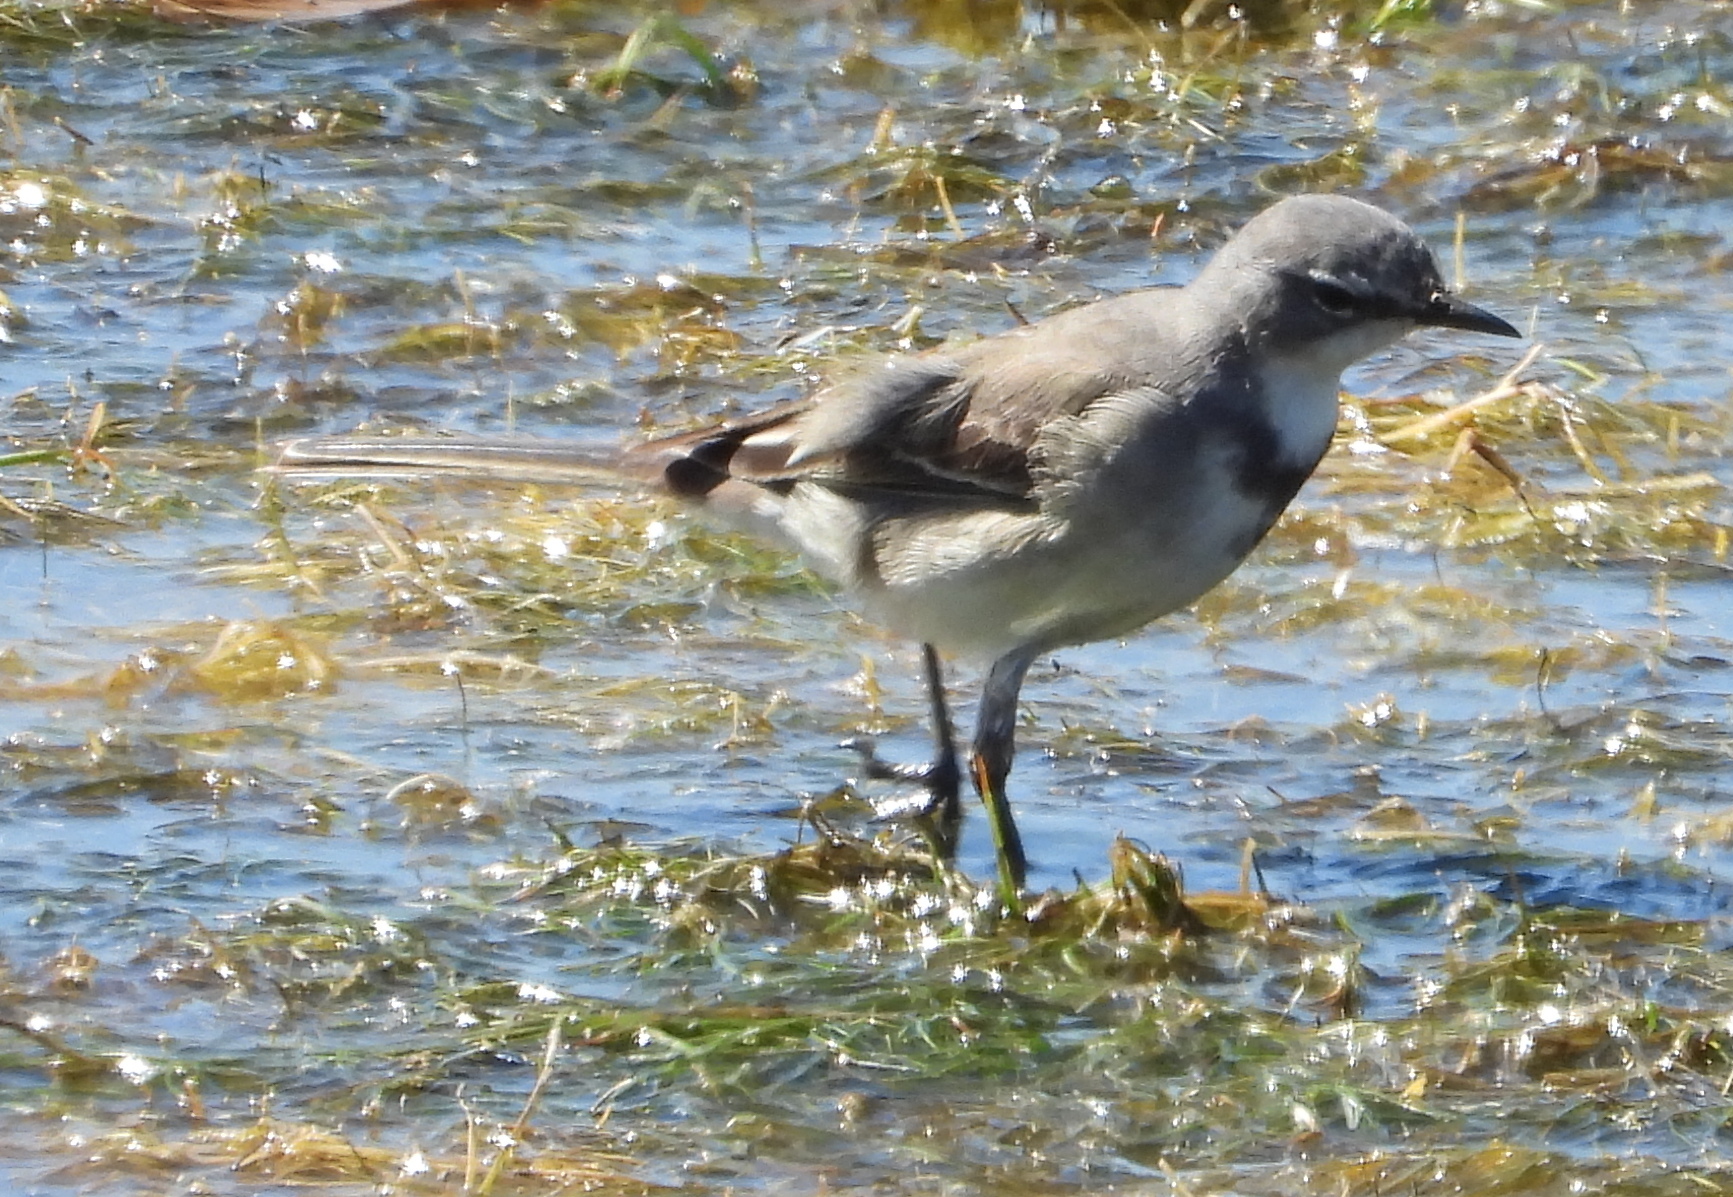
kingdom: Animalia
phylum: Chordata
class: Aves
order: Passeriformes
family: Motacillidae
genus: Motacilla
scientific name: Motacilla capensis
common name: Cape wagtail
